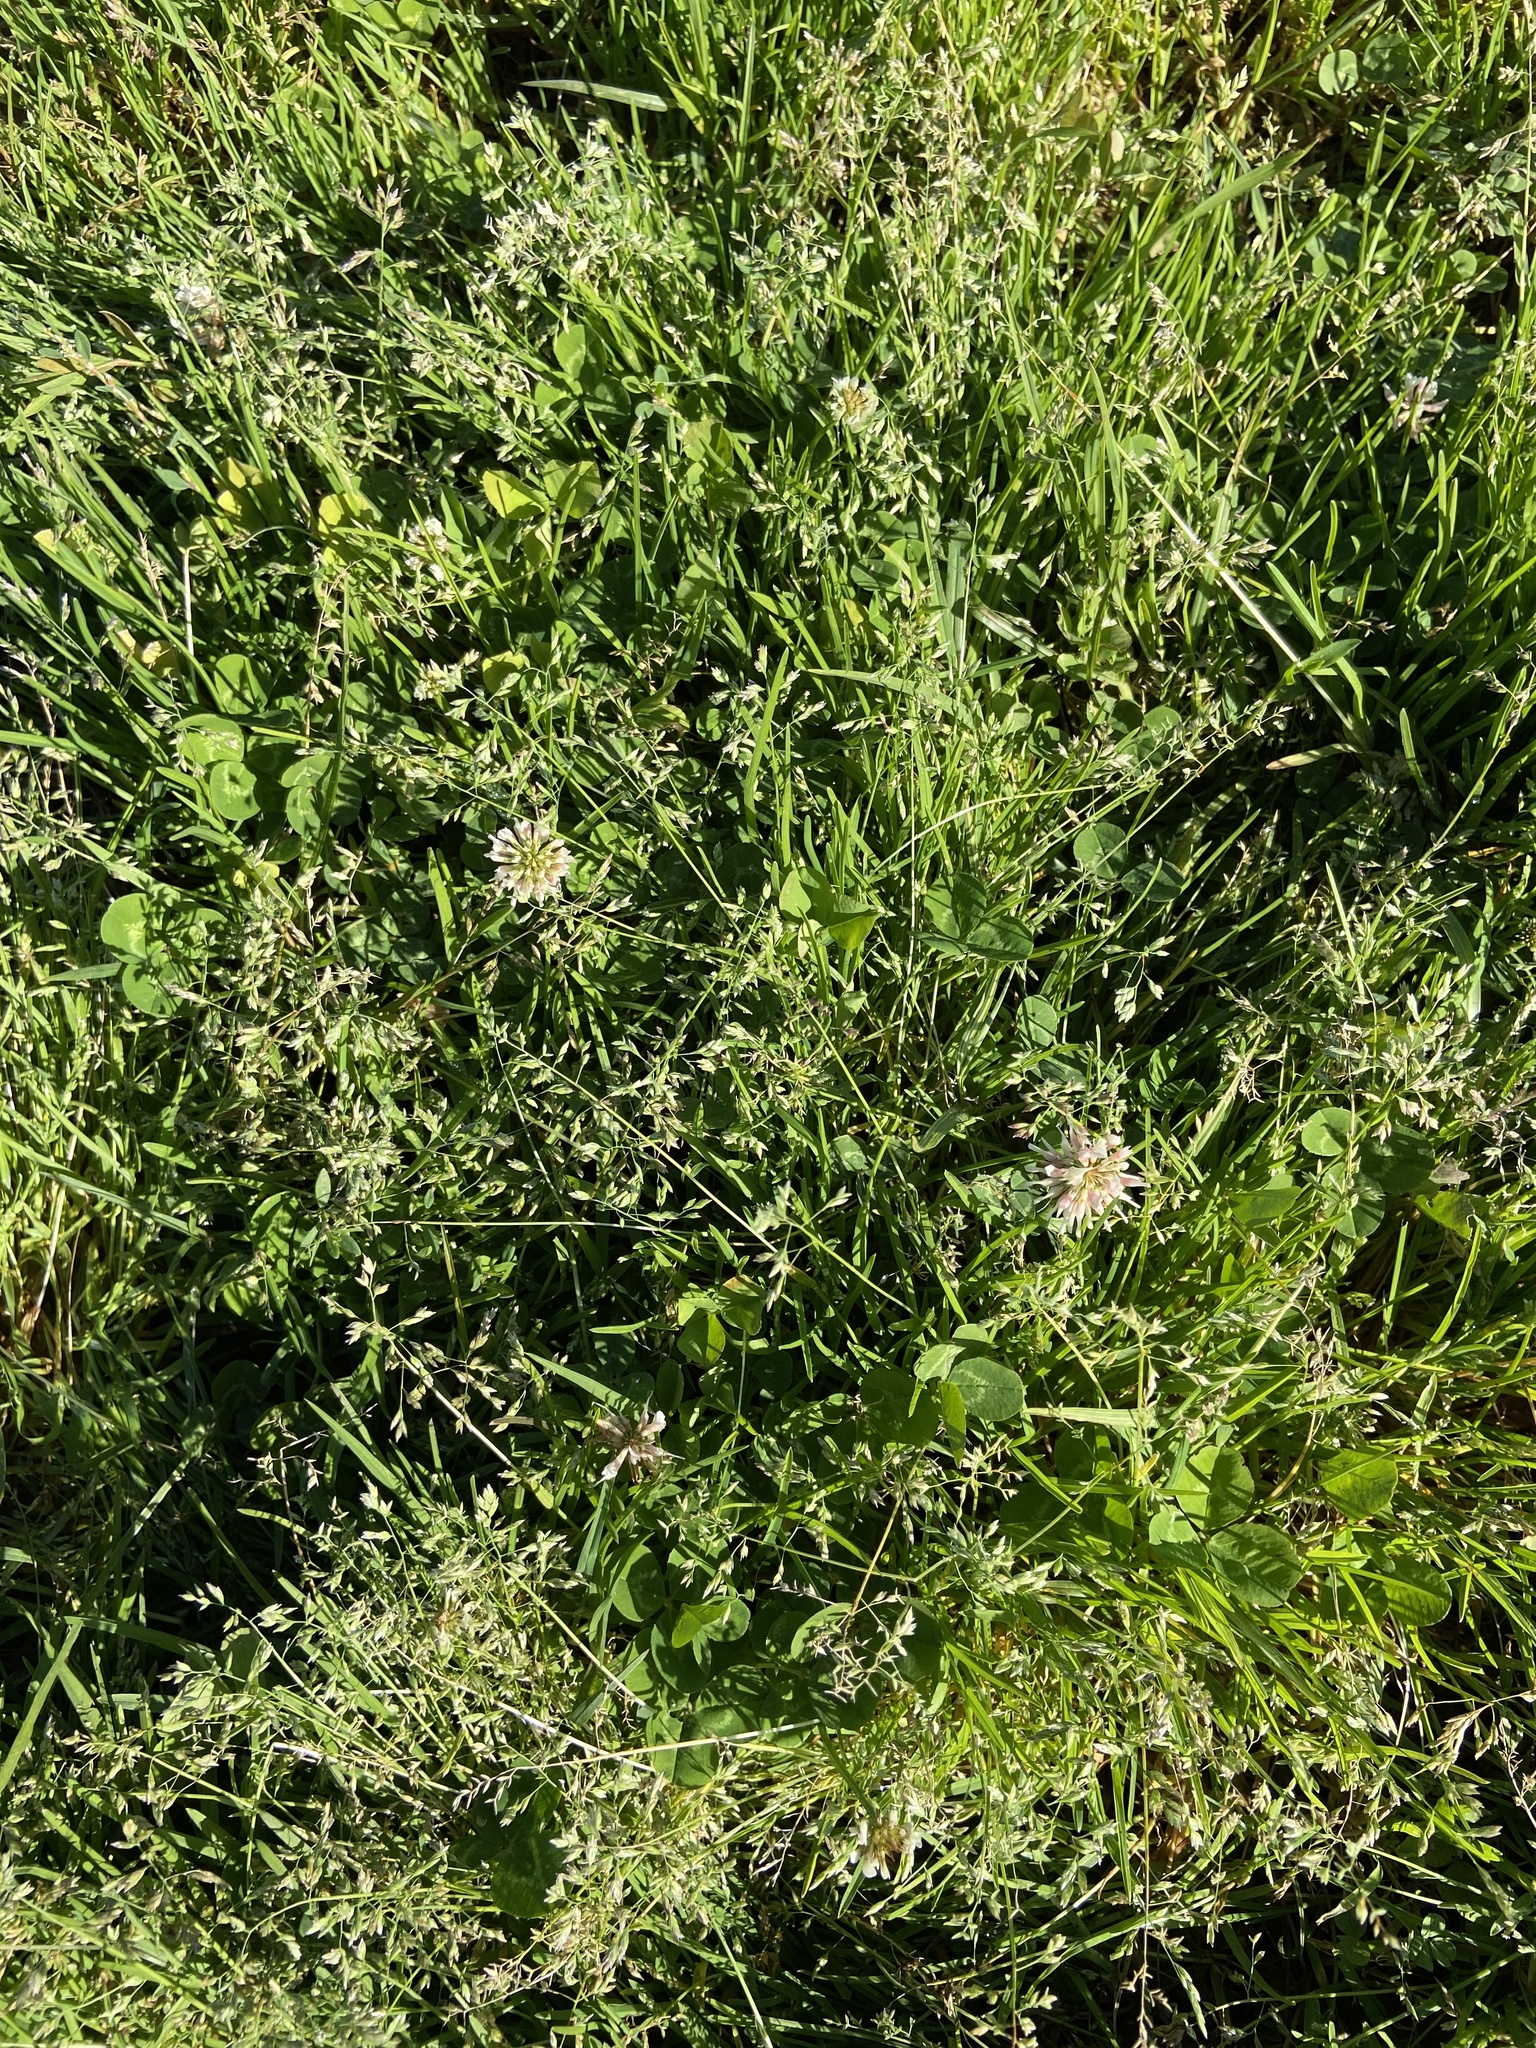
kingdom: Plantae
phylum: Tracheophyta
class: Magnoliopsida
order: Fabales
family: Fabaceae
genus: Trifolium
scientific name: Trifolium repens
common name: White clover
